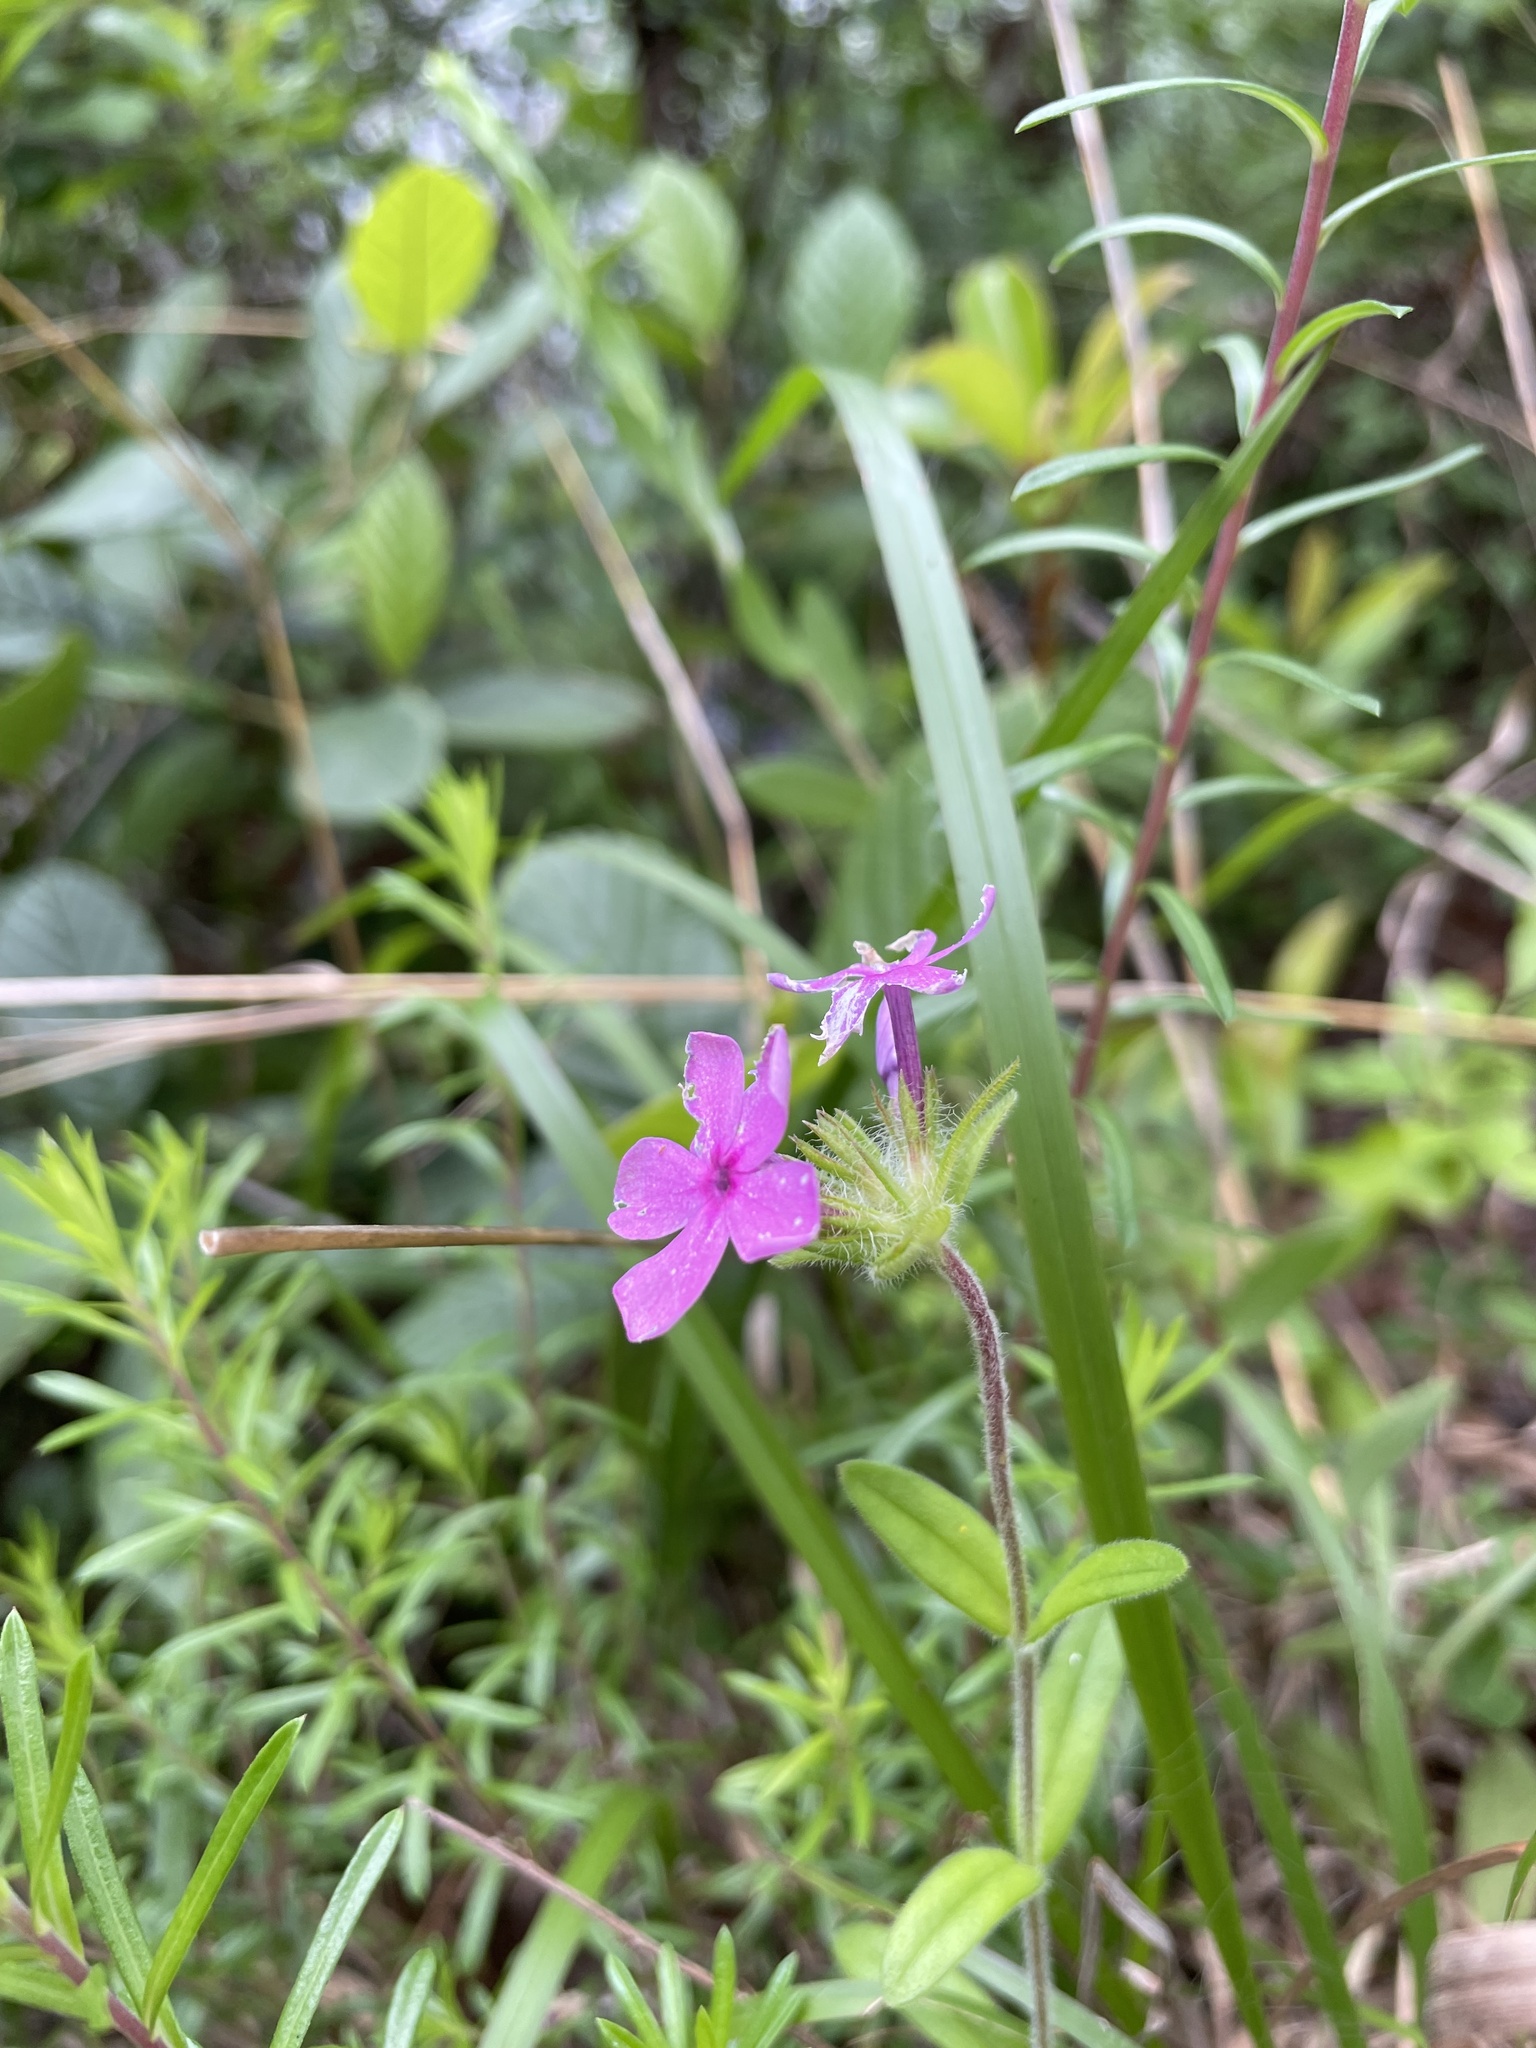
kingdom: Plantae
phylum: Tracheophyta
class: Magnoliopsida
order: Ericales
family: Polemoniaceae
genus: Phlox
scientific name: Phlox amoena
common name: Hairy phlox
